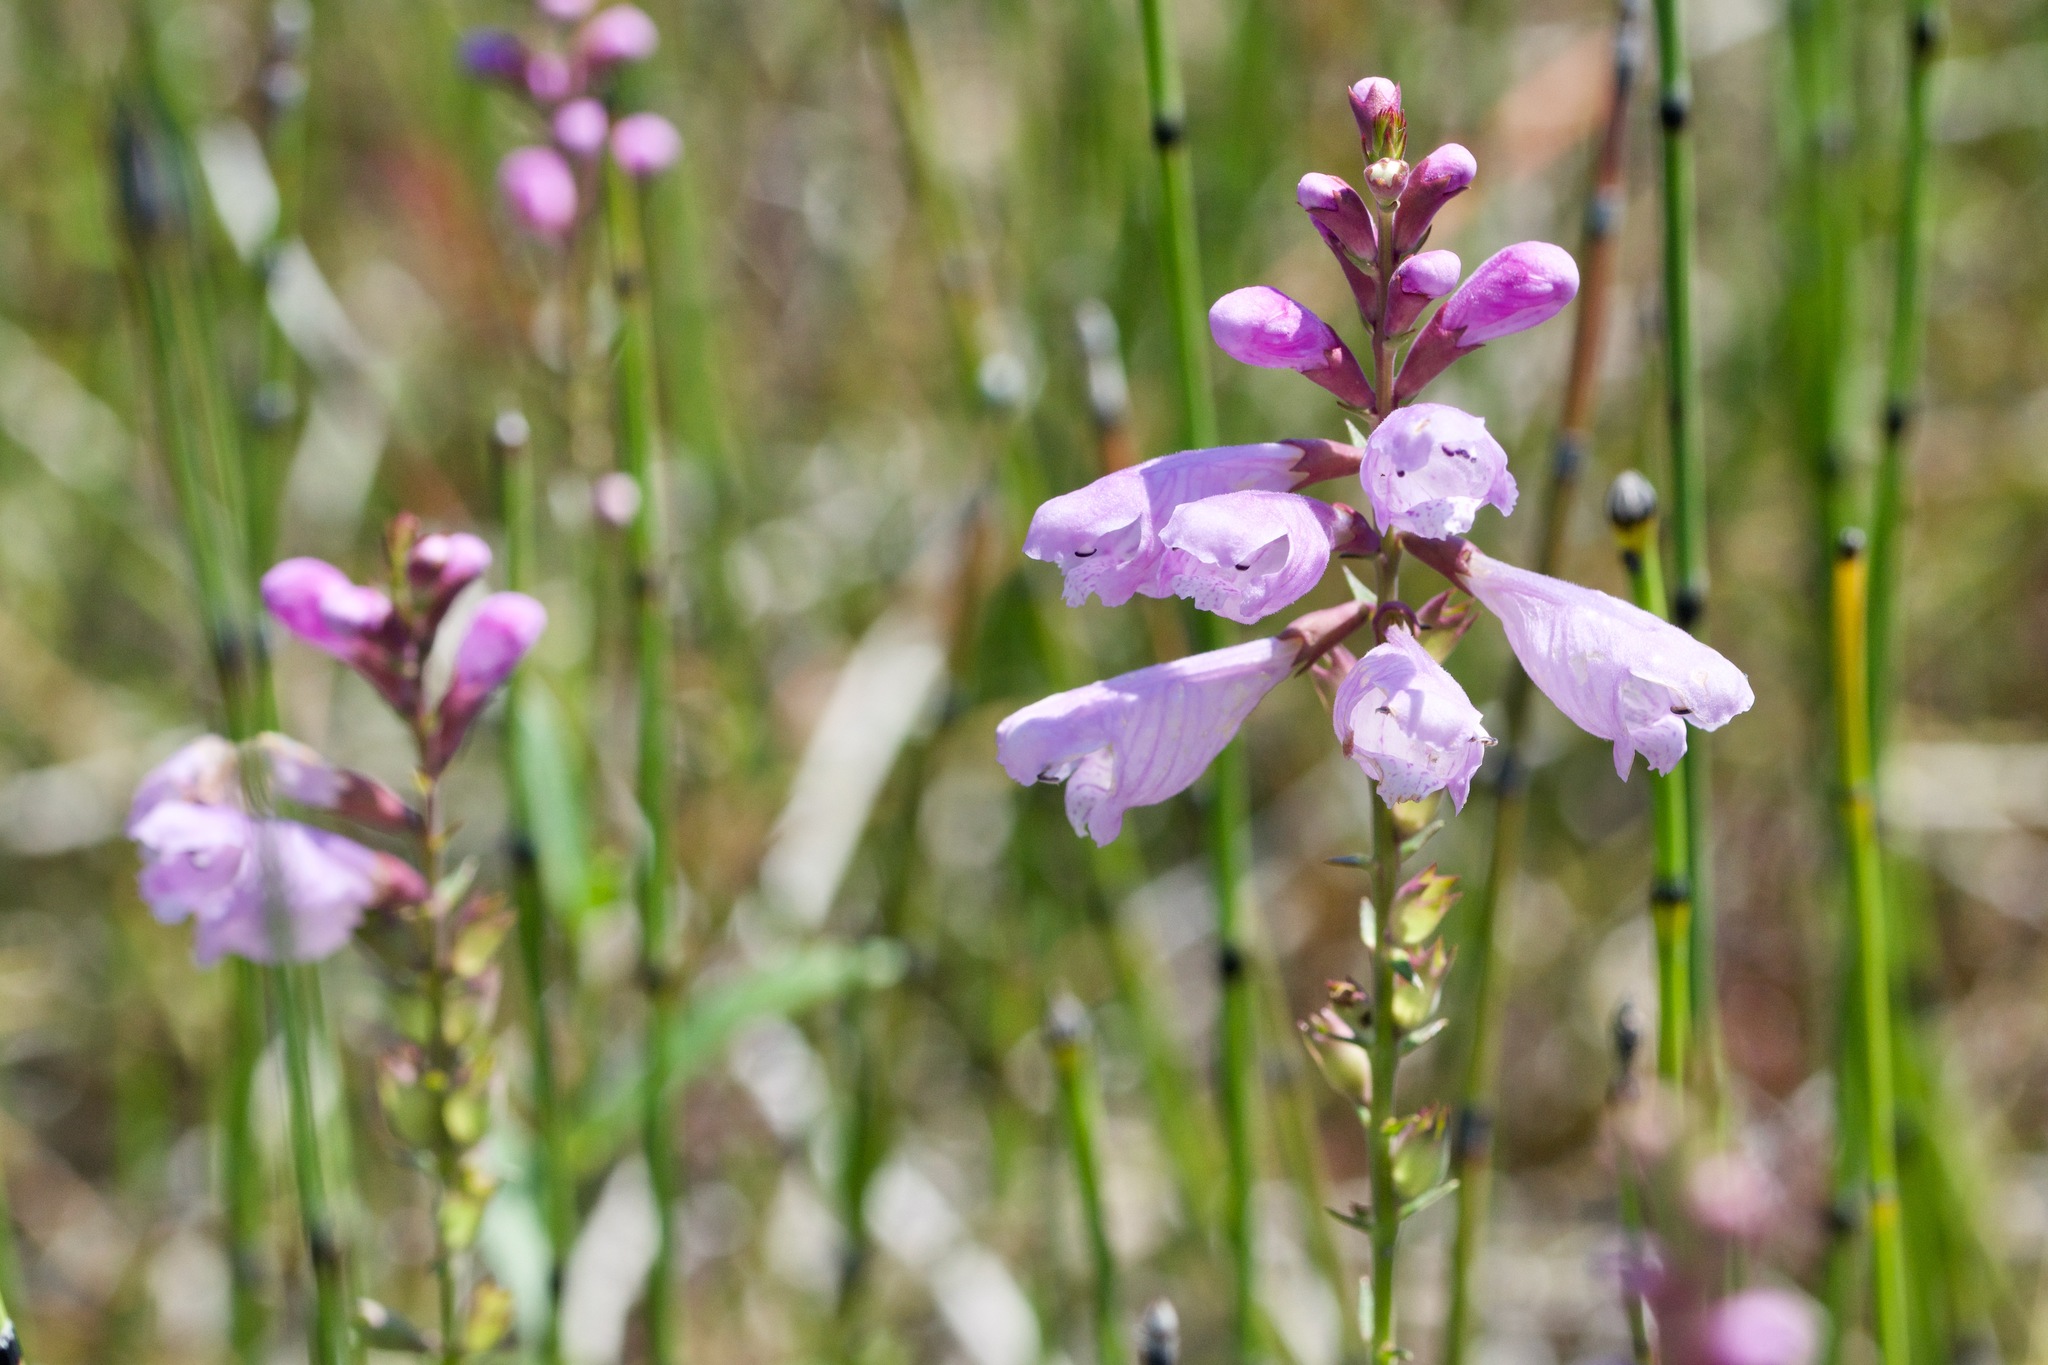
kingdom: Plantae
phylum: Tracheophyta
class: Magnoliopsida
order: Lamiales
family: Lamiaceae
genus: Physostegia
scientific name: Physostegia virginiana
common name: Obedient-plant
